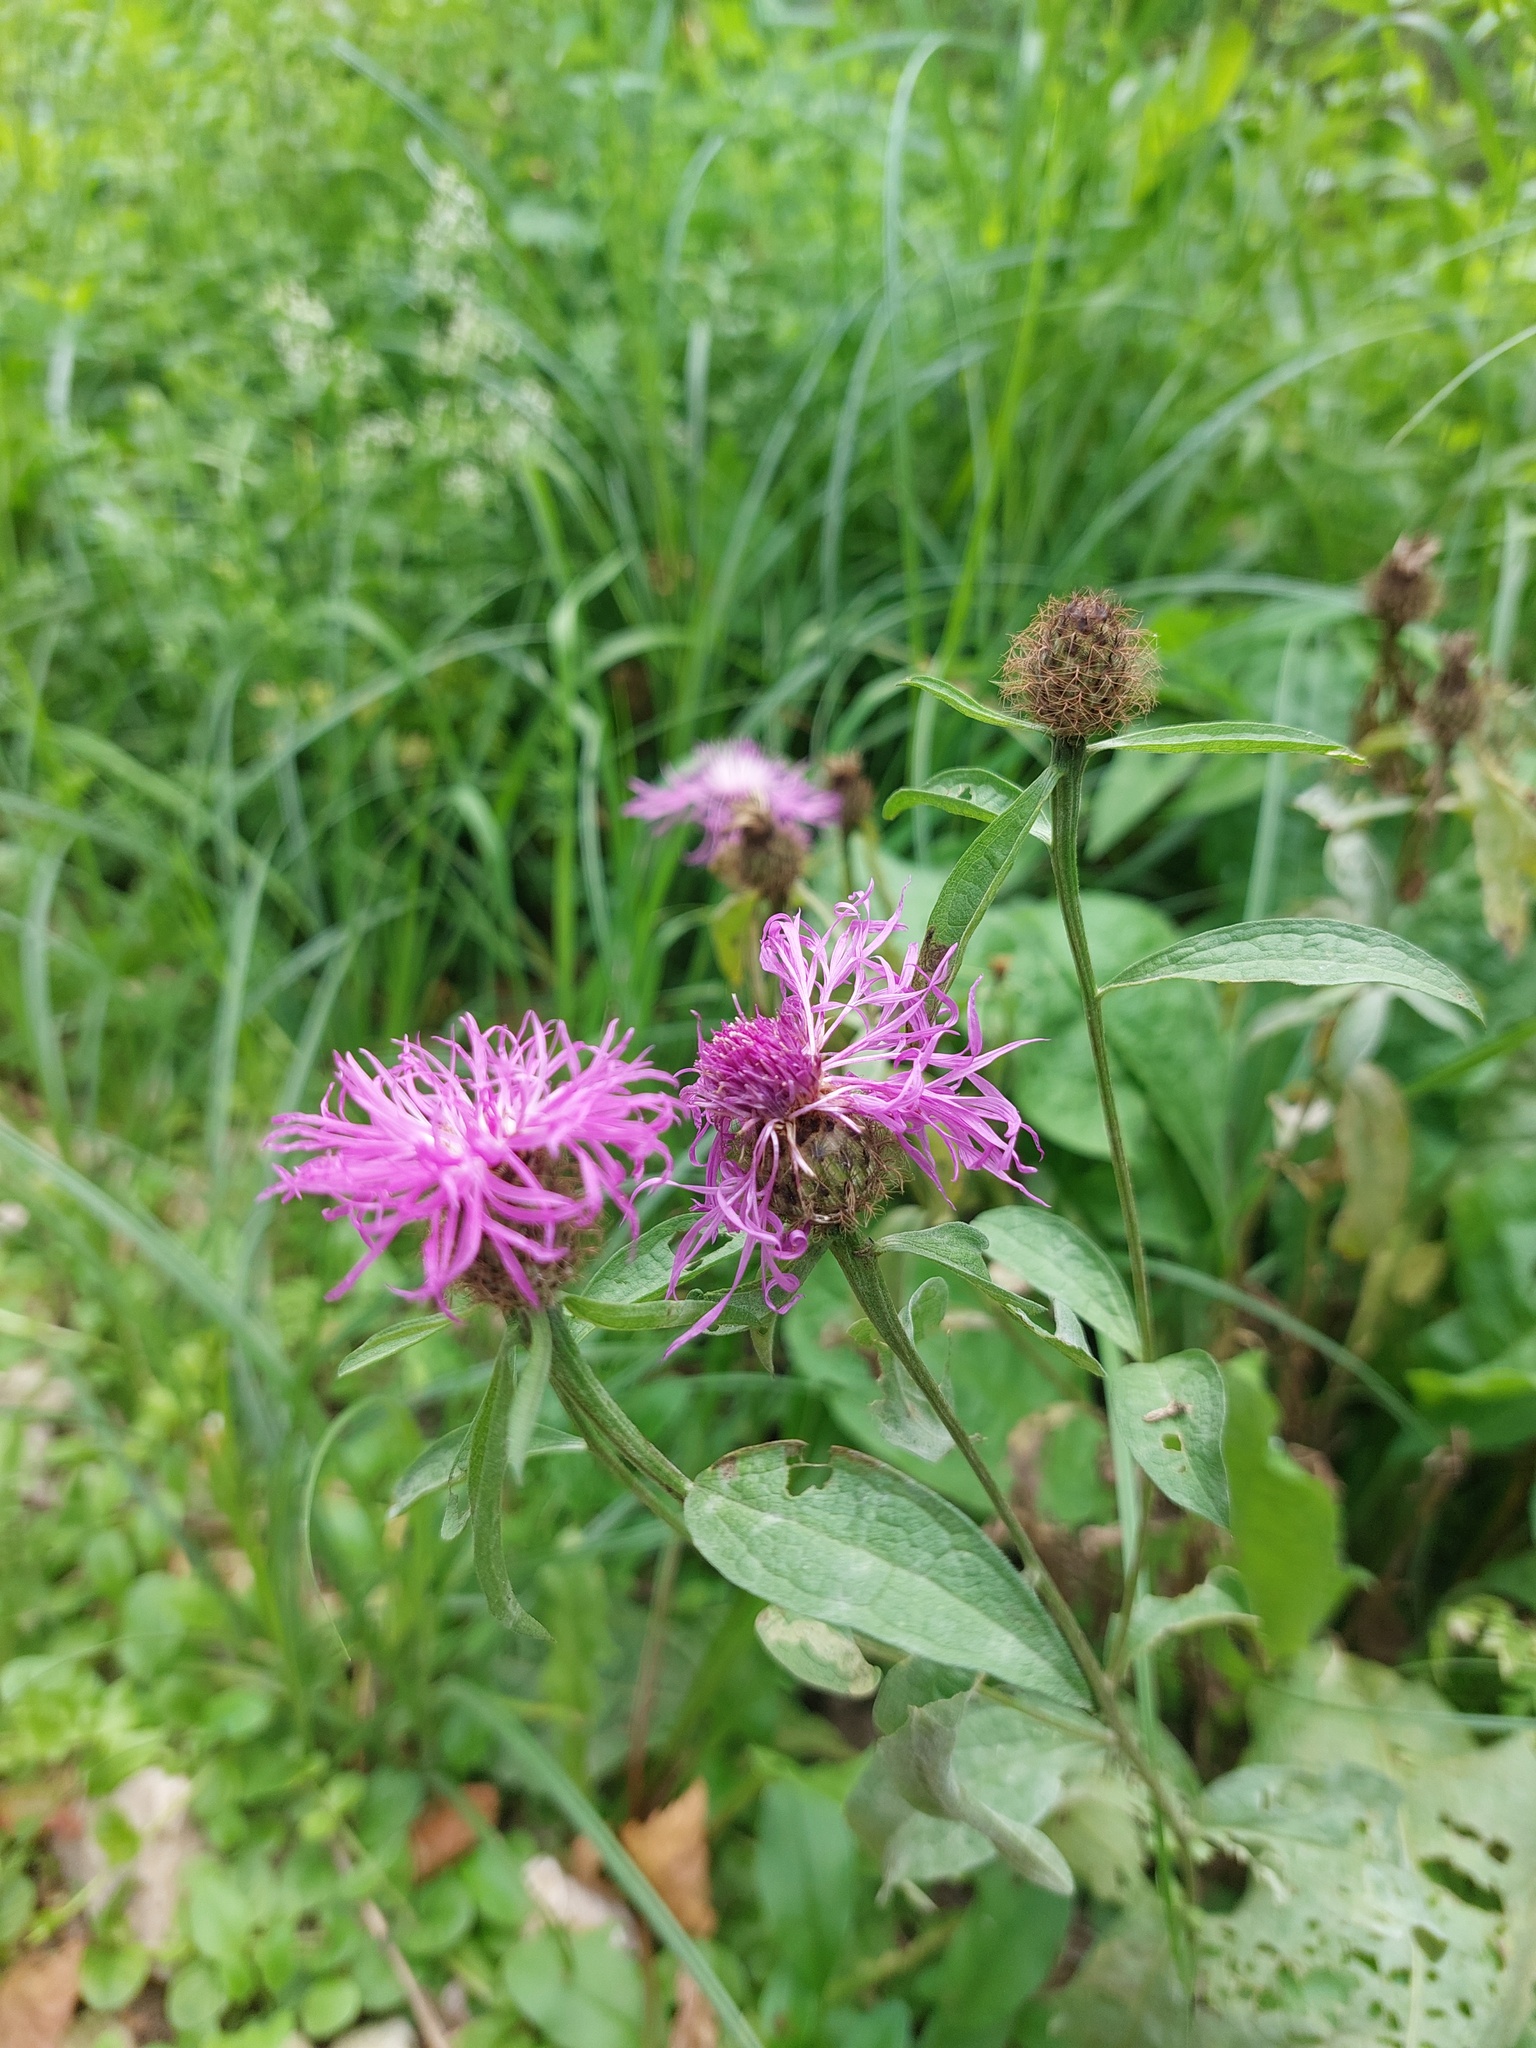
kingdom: Plantae
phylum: Tracheophyta
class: Magnoliopsida
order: Asterales
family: Asteraceae
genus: Centaurea
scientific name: Centaurea phrygia
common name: Wig knapweed
